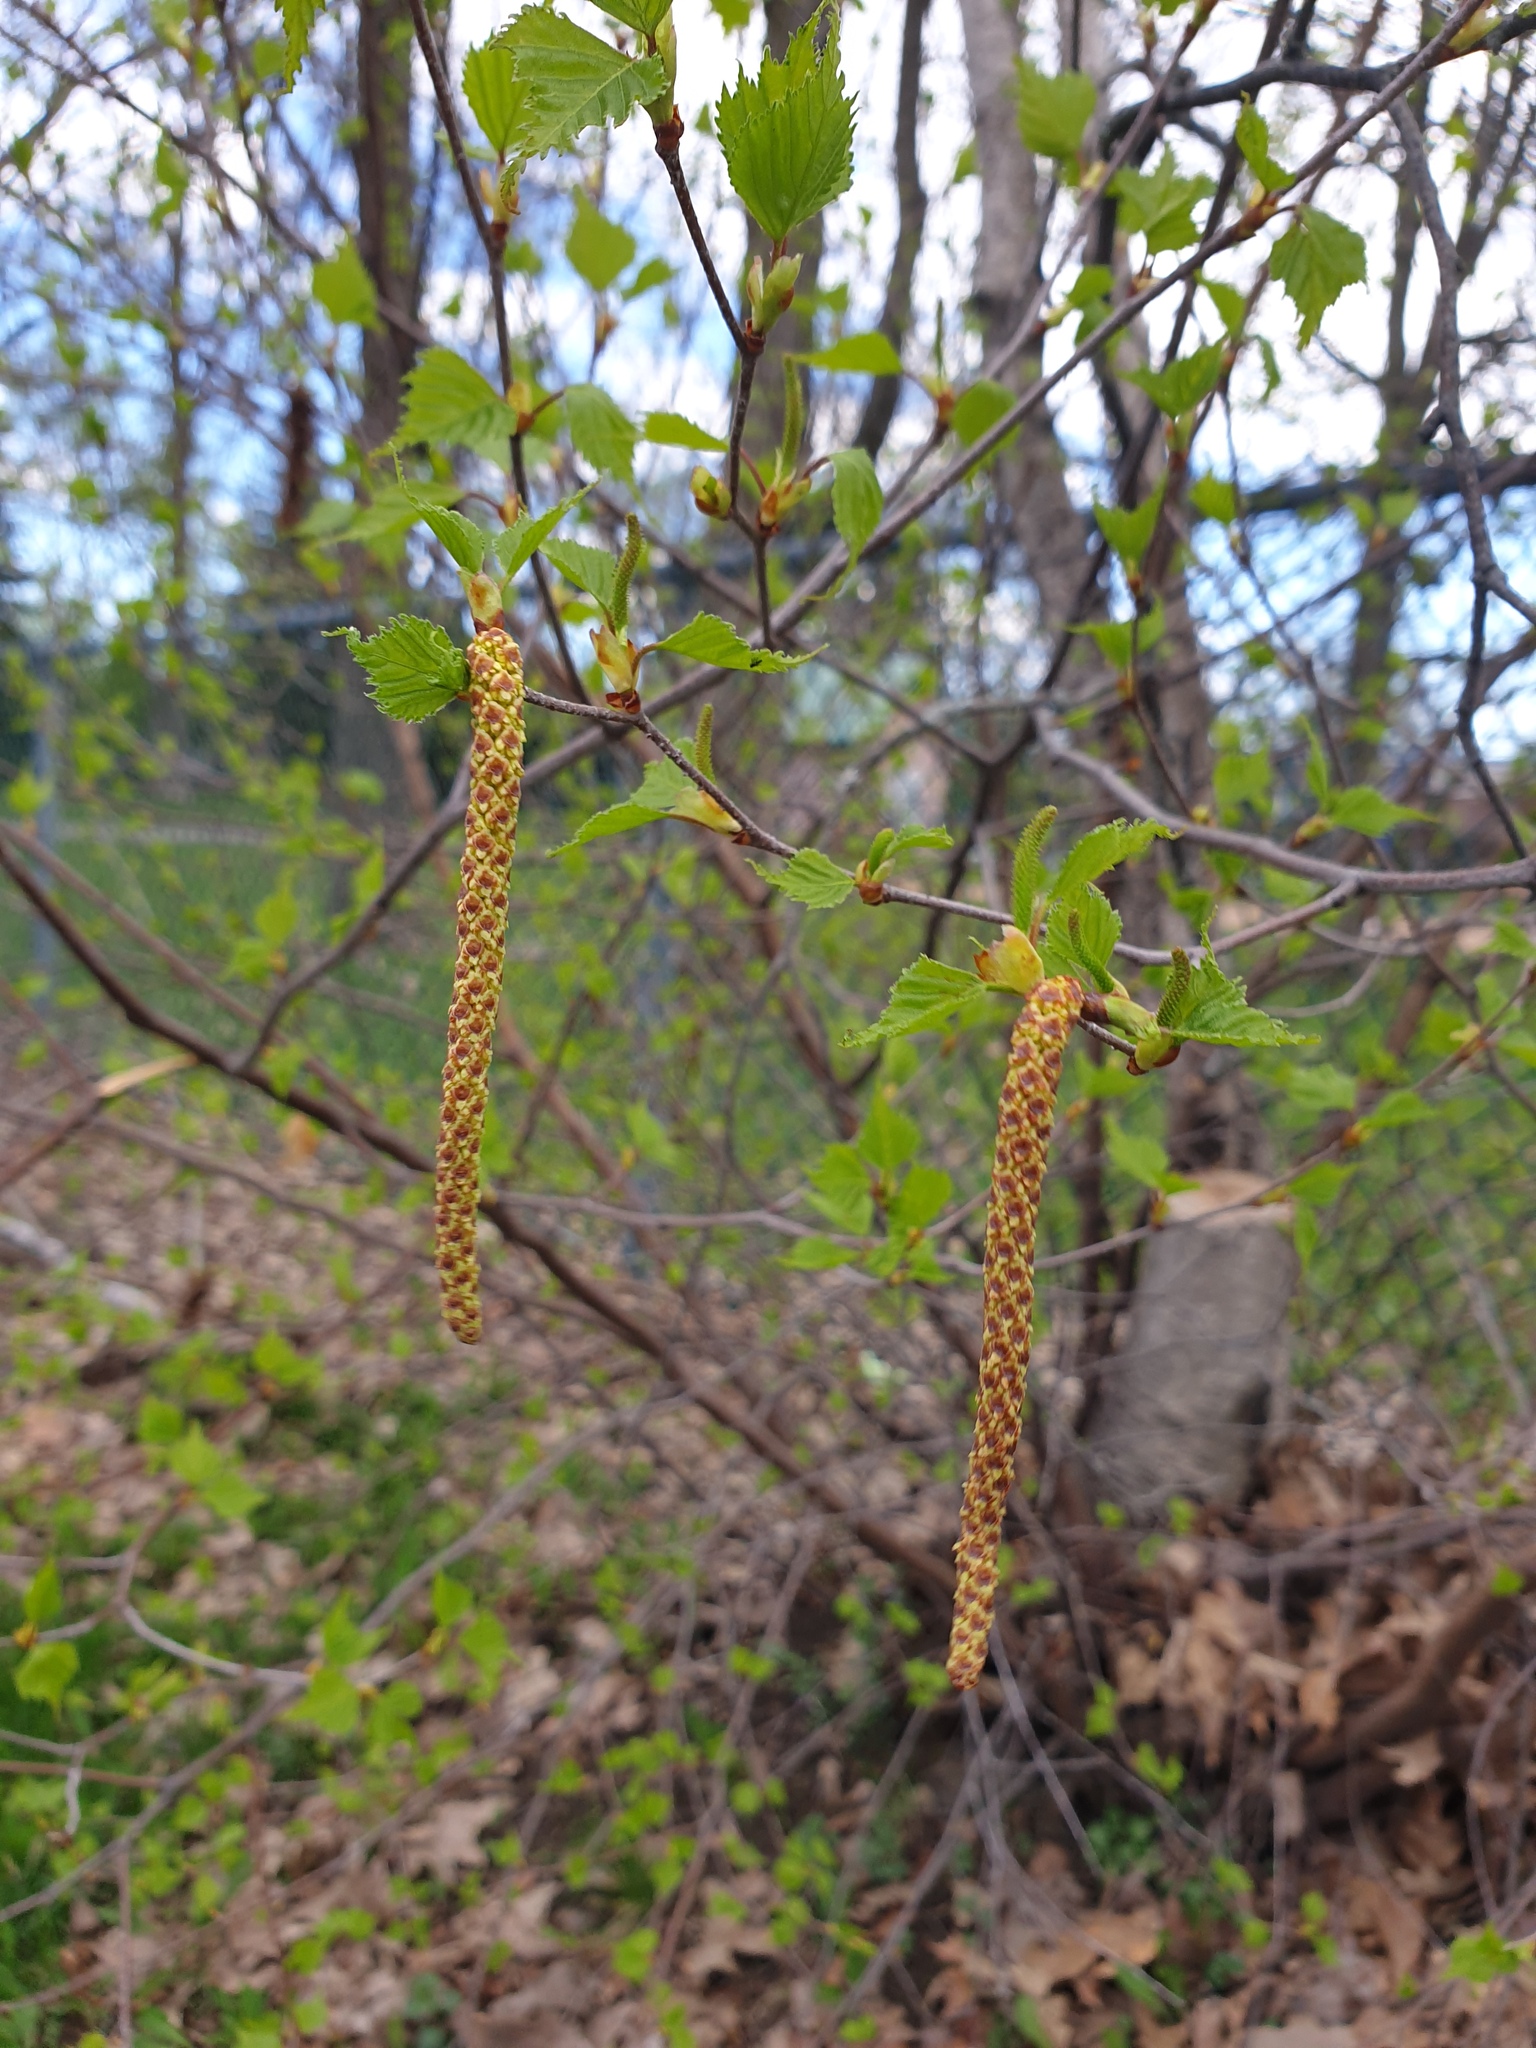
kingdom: Plantae
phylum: Tracheophyta
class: Magnoliopsida
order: Fagales
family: Betulaceae
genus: Betula
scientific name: Betula populifolia
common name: Fire birch
